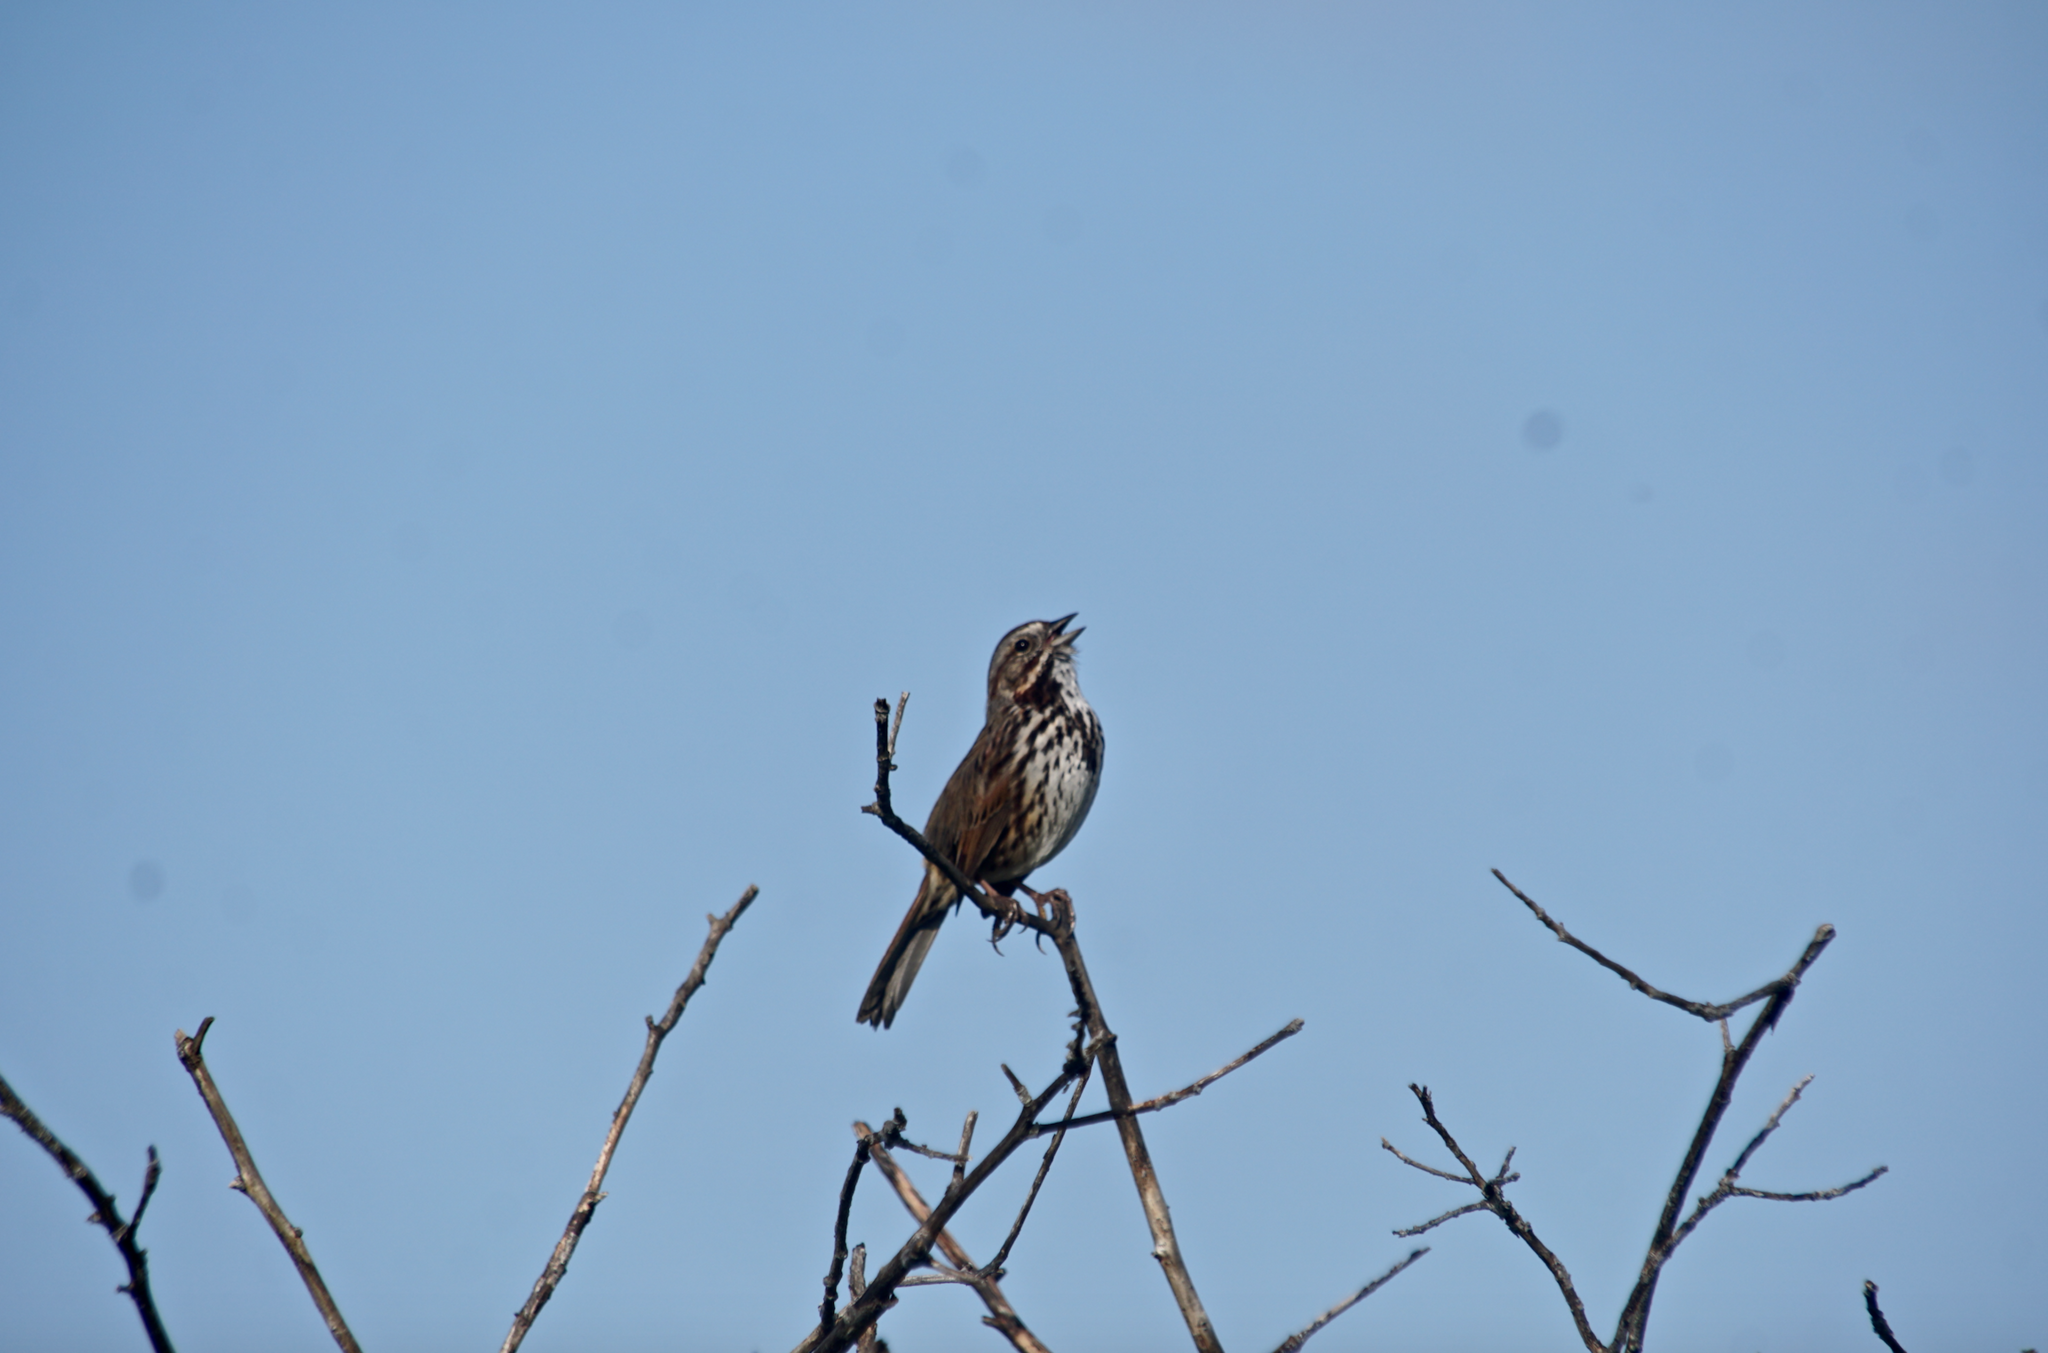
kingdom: Animalia
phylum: Chordata
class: Aves
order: Passeriformes
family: Passerellidae
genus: Melospiza
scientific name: Melospiza melodia
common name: Song sparrow
